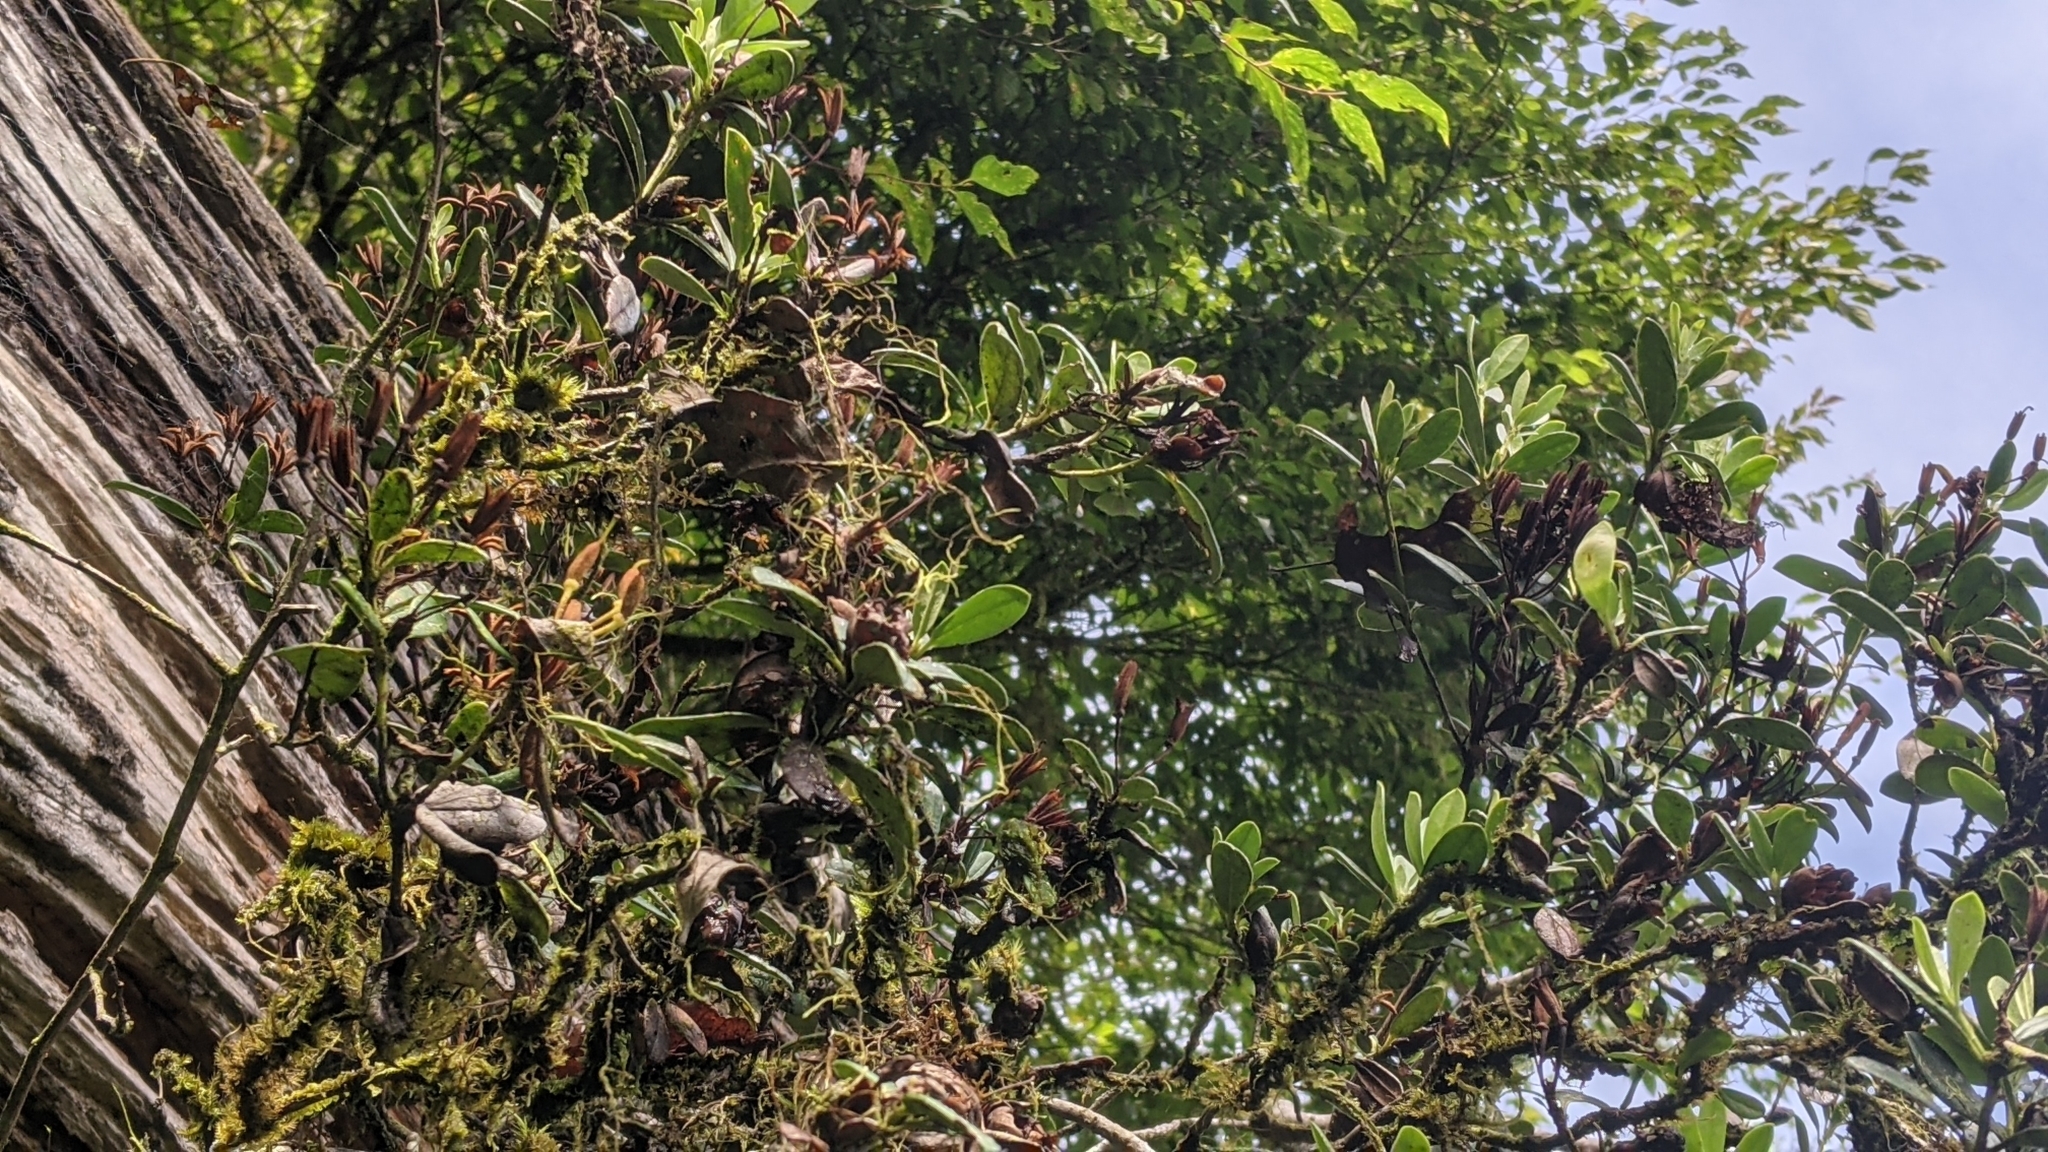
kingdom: Plantae
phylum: Tracheophyta
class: Magnoliopsida
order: Ericales
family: Ericaceae
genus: Rhododendron
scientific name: Rhododendron kawakamii
